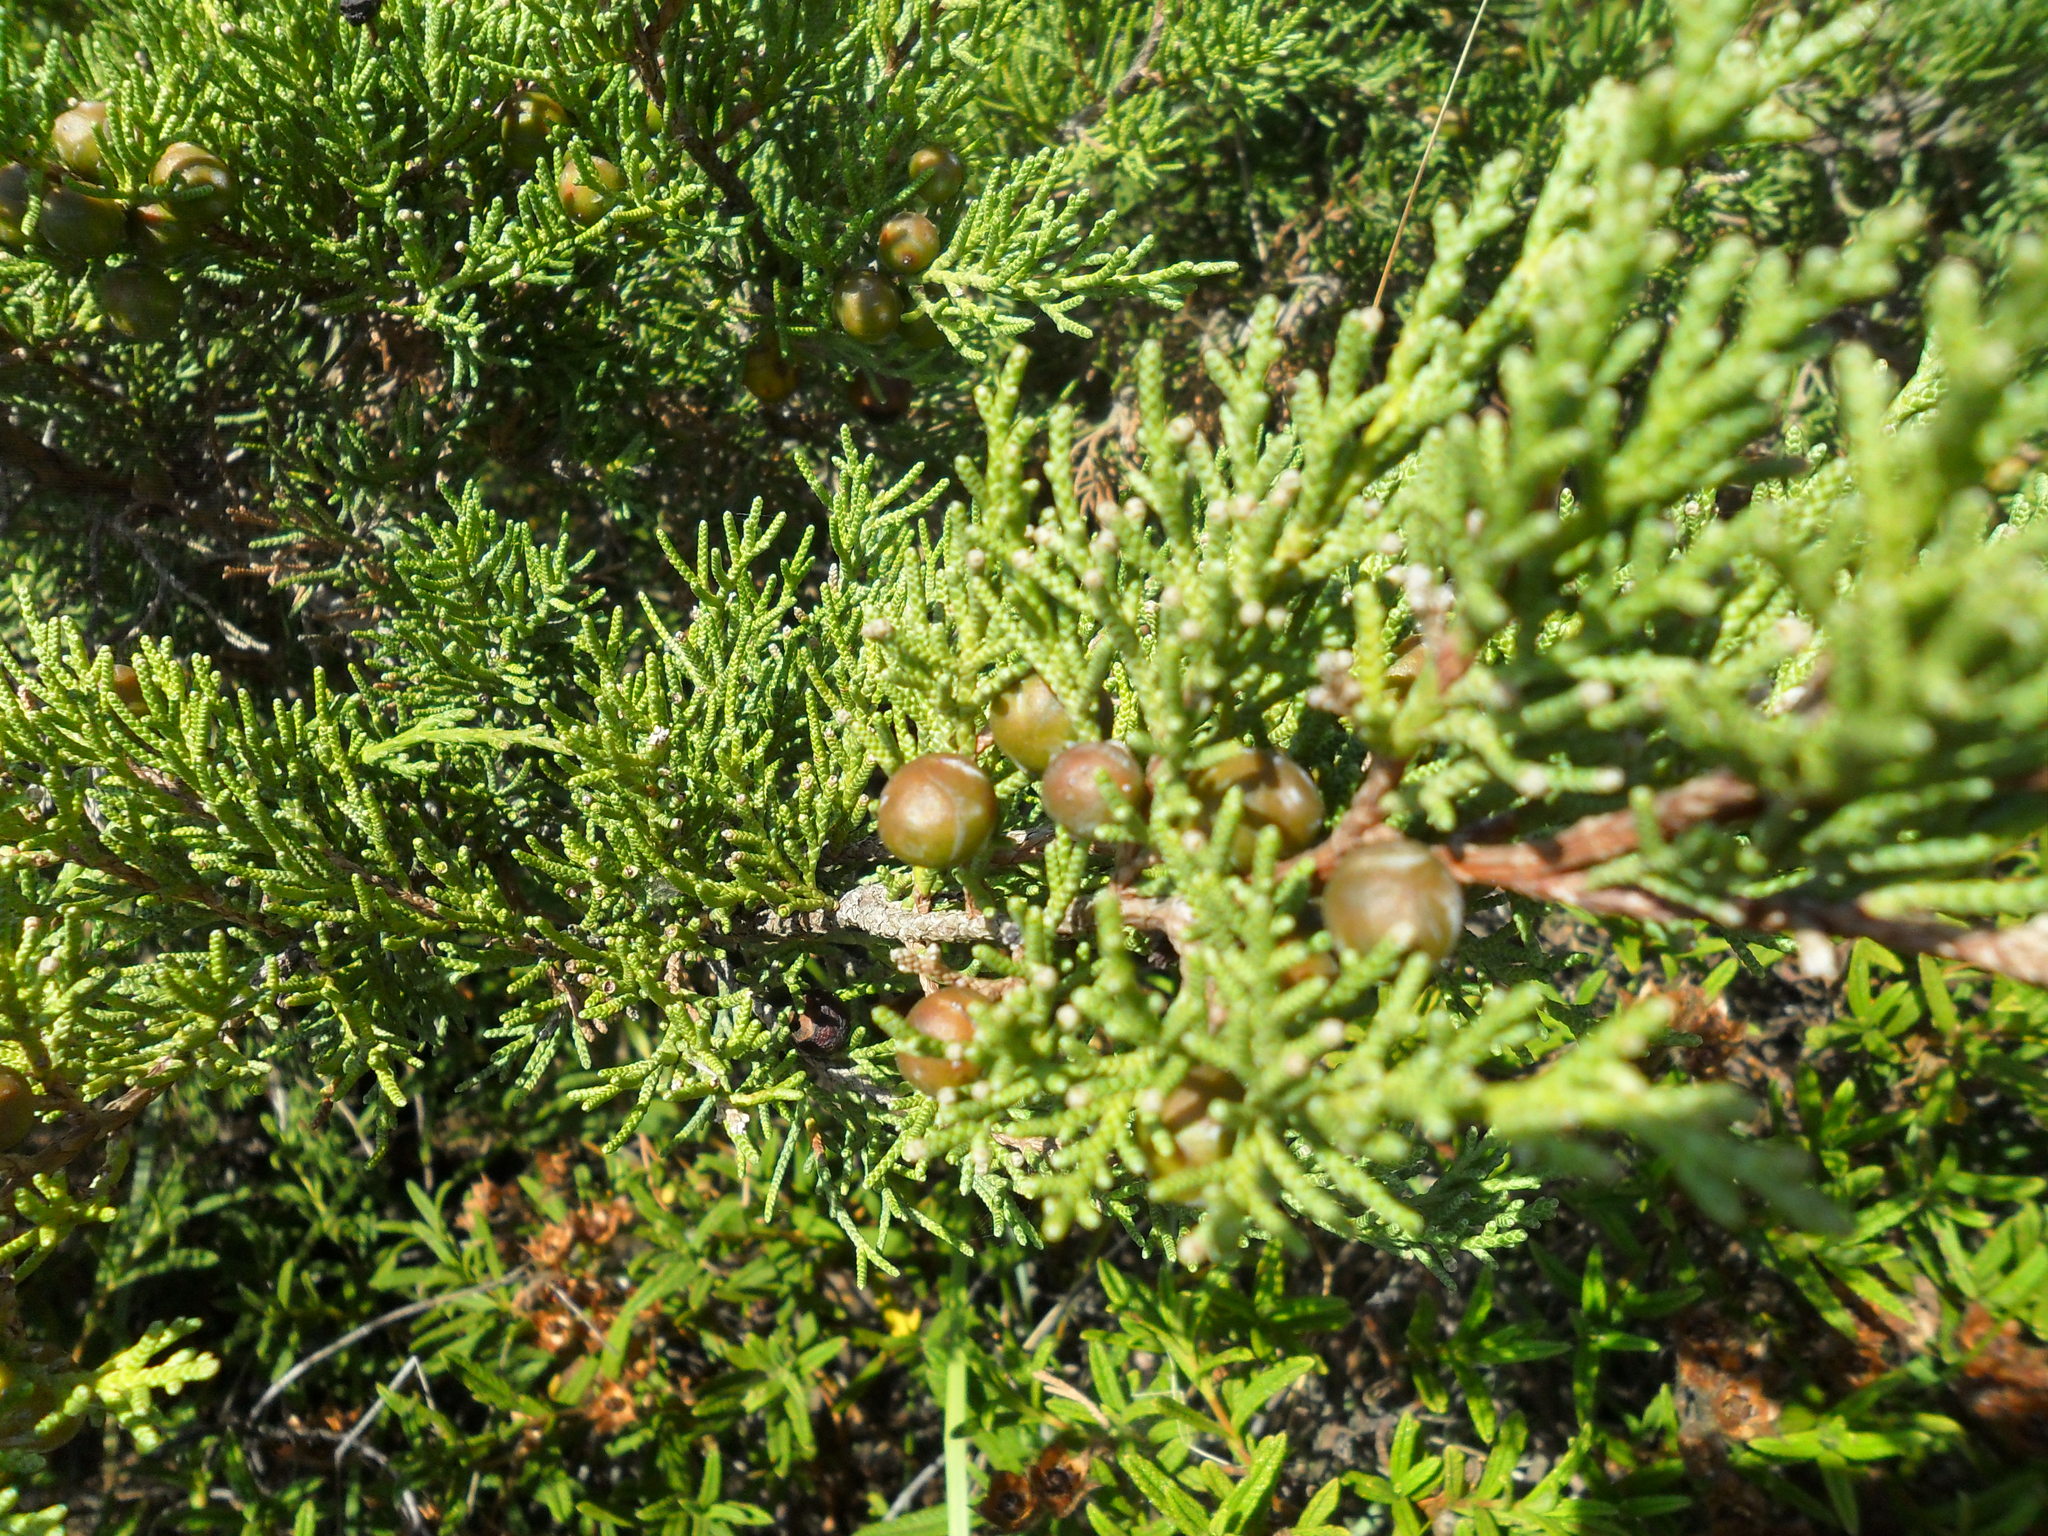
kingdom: Plantae
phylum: Tracheophyta
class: Pinopsida
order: Pinales
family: Cupressaceae
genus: Juniperus
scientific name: Juniperus phoenicea
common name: Phoenician juniper
